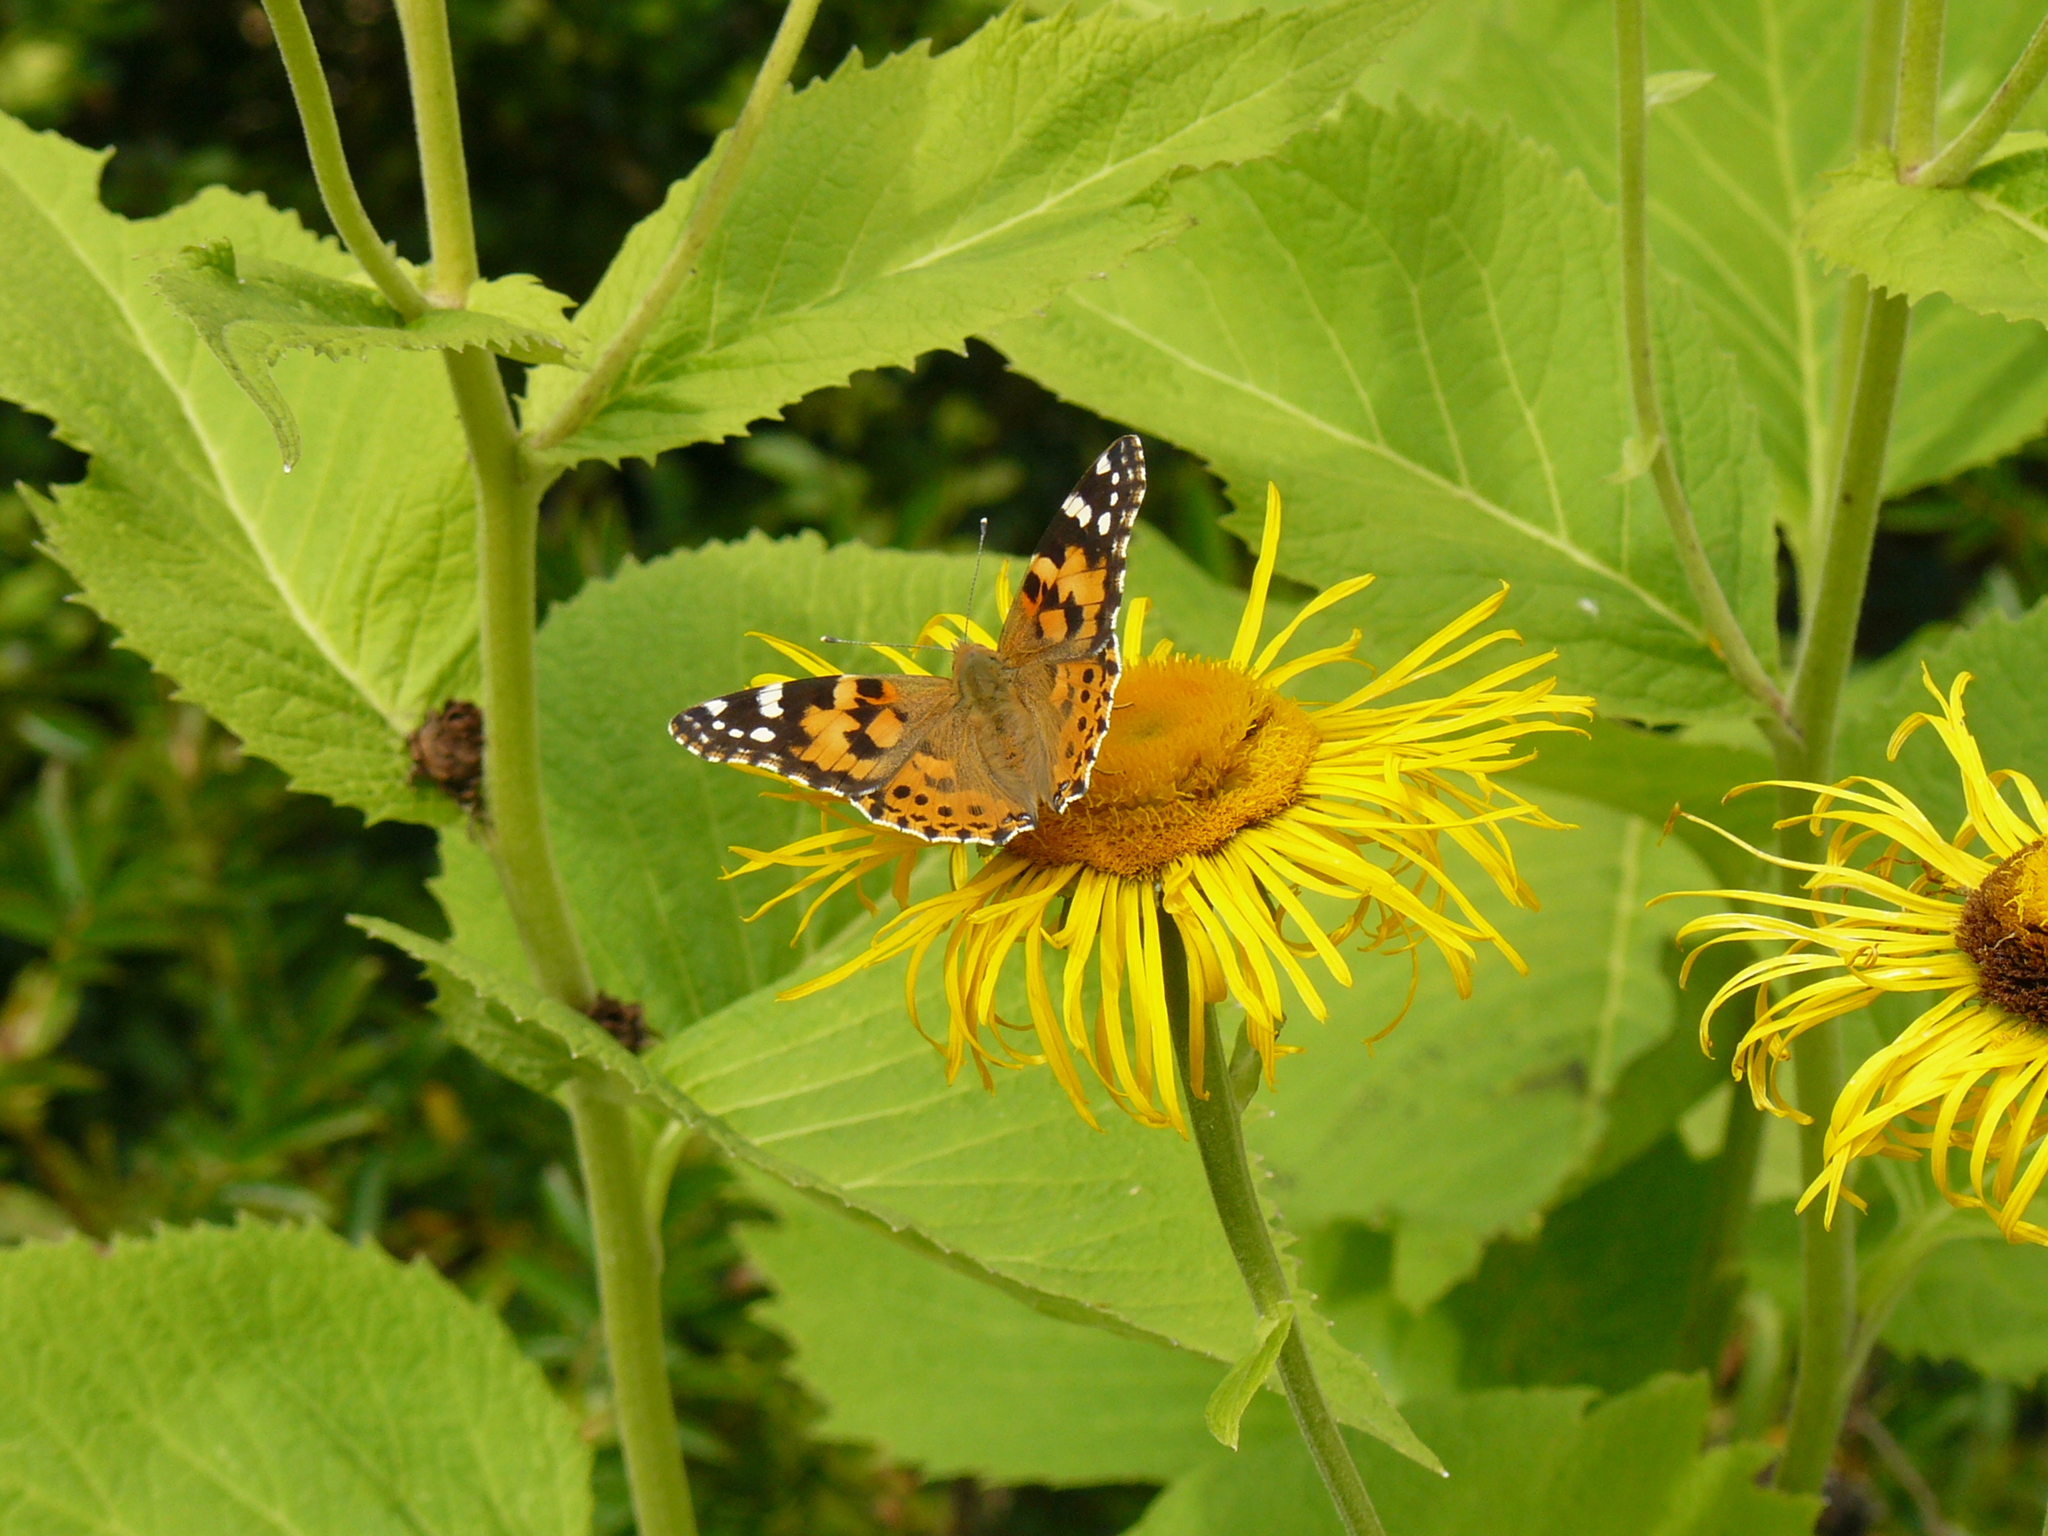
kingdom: Animalia
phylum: Arthropoda
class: Insecta
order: Lepidoptera
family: Nymphalidae
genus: Vanessa
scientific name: Vanessa cardui
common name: Painted lady
